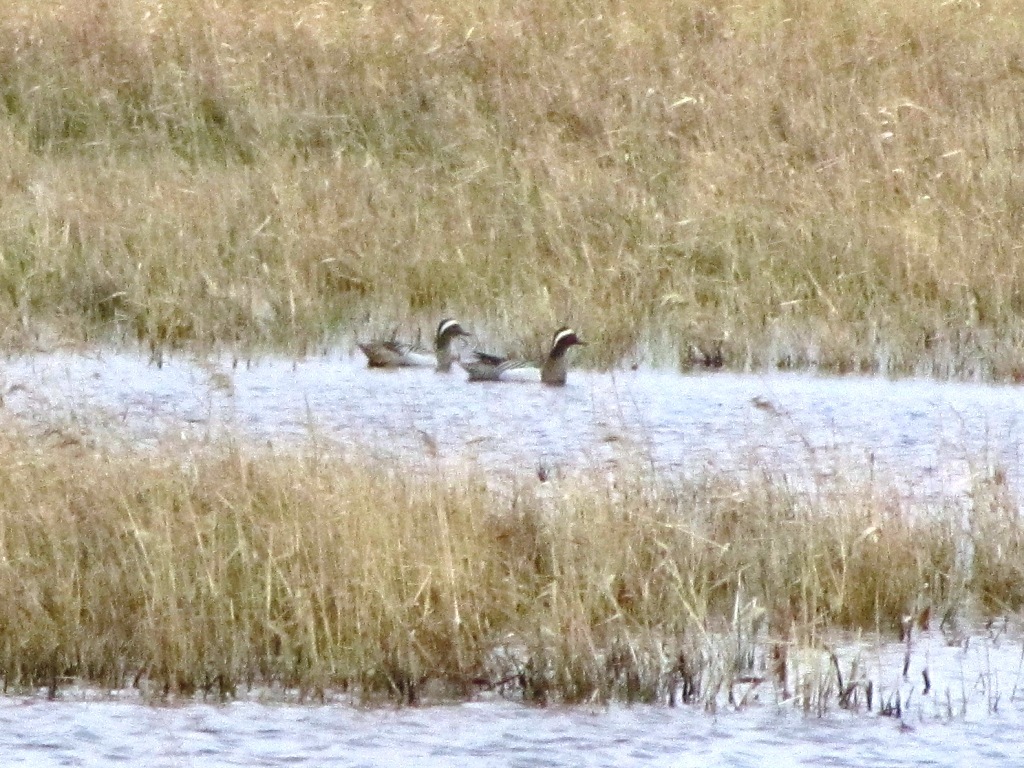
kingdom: Animalia
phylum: Chordata
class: Aves
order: Anseriformes
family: Anatidae
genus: Spatula
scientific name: Spatula querquedula
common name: Garganey
